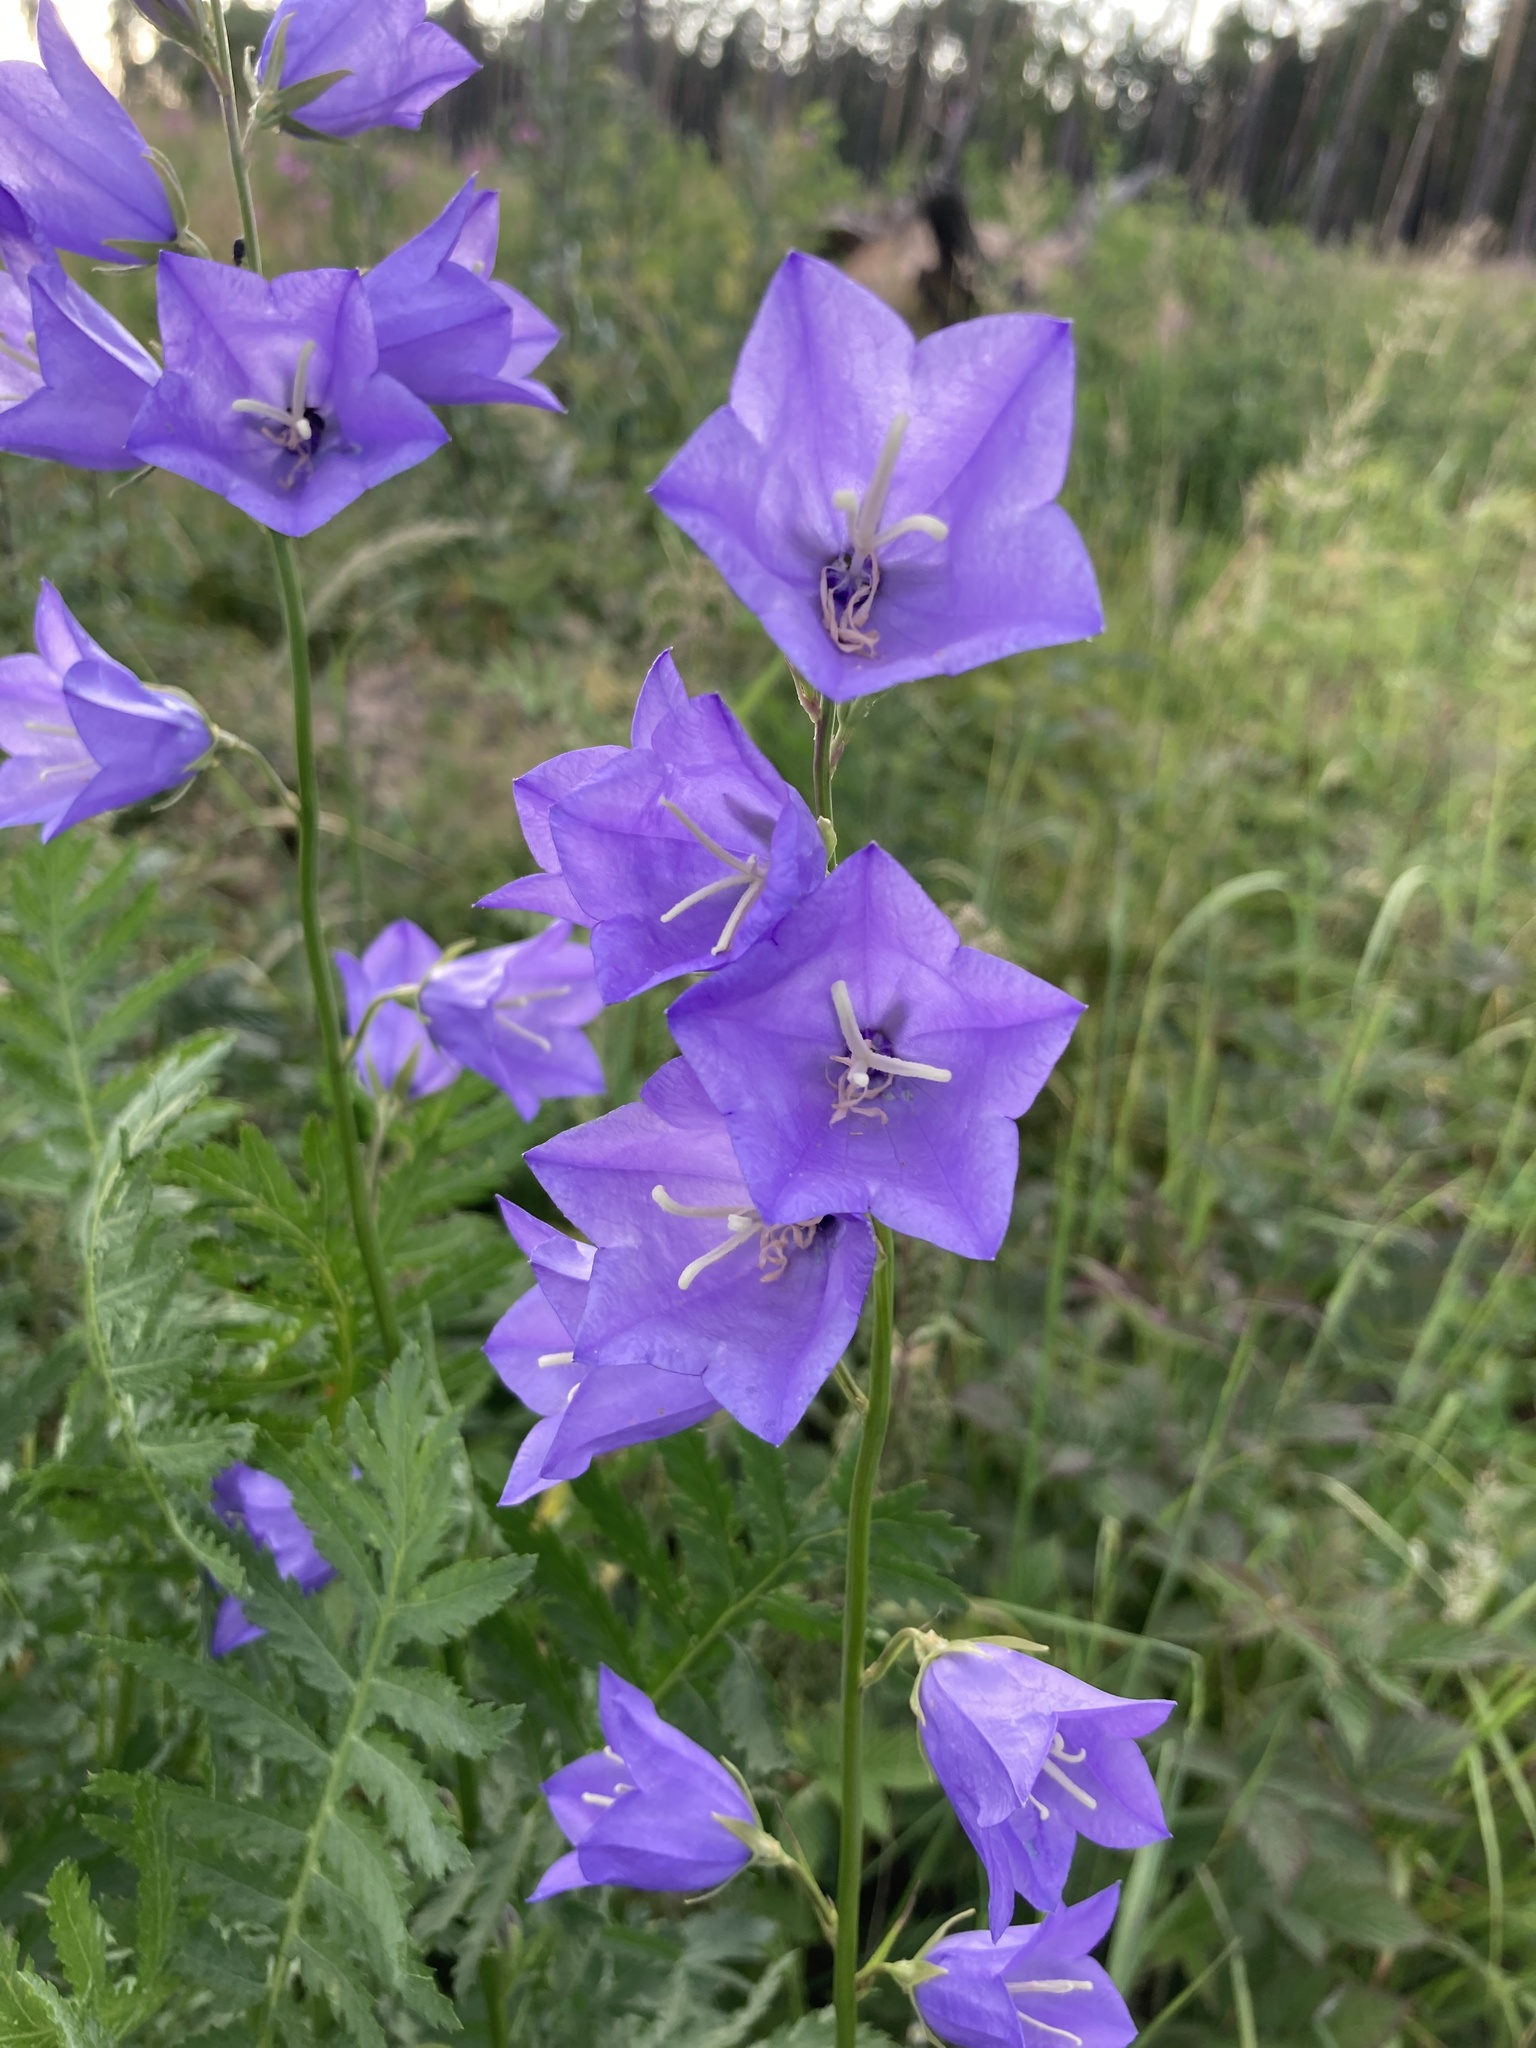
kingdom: Plantae
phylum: Tracheophyta
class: Magnoliopsida
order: Asterales
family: Campanulaceae
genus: Campanula
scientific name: Campanula persicifolia
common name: Peach-leaved bellflower
